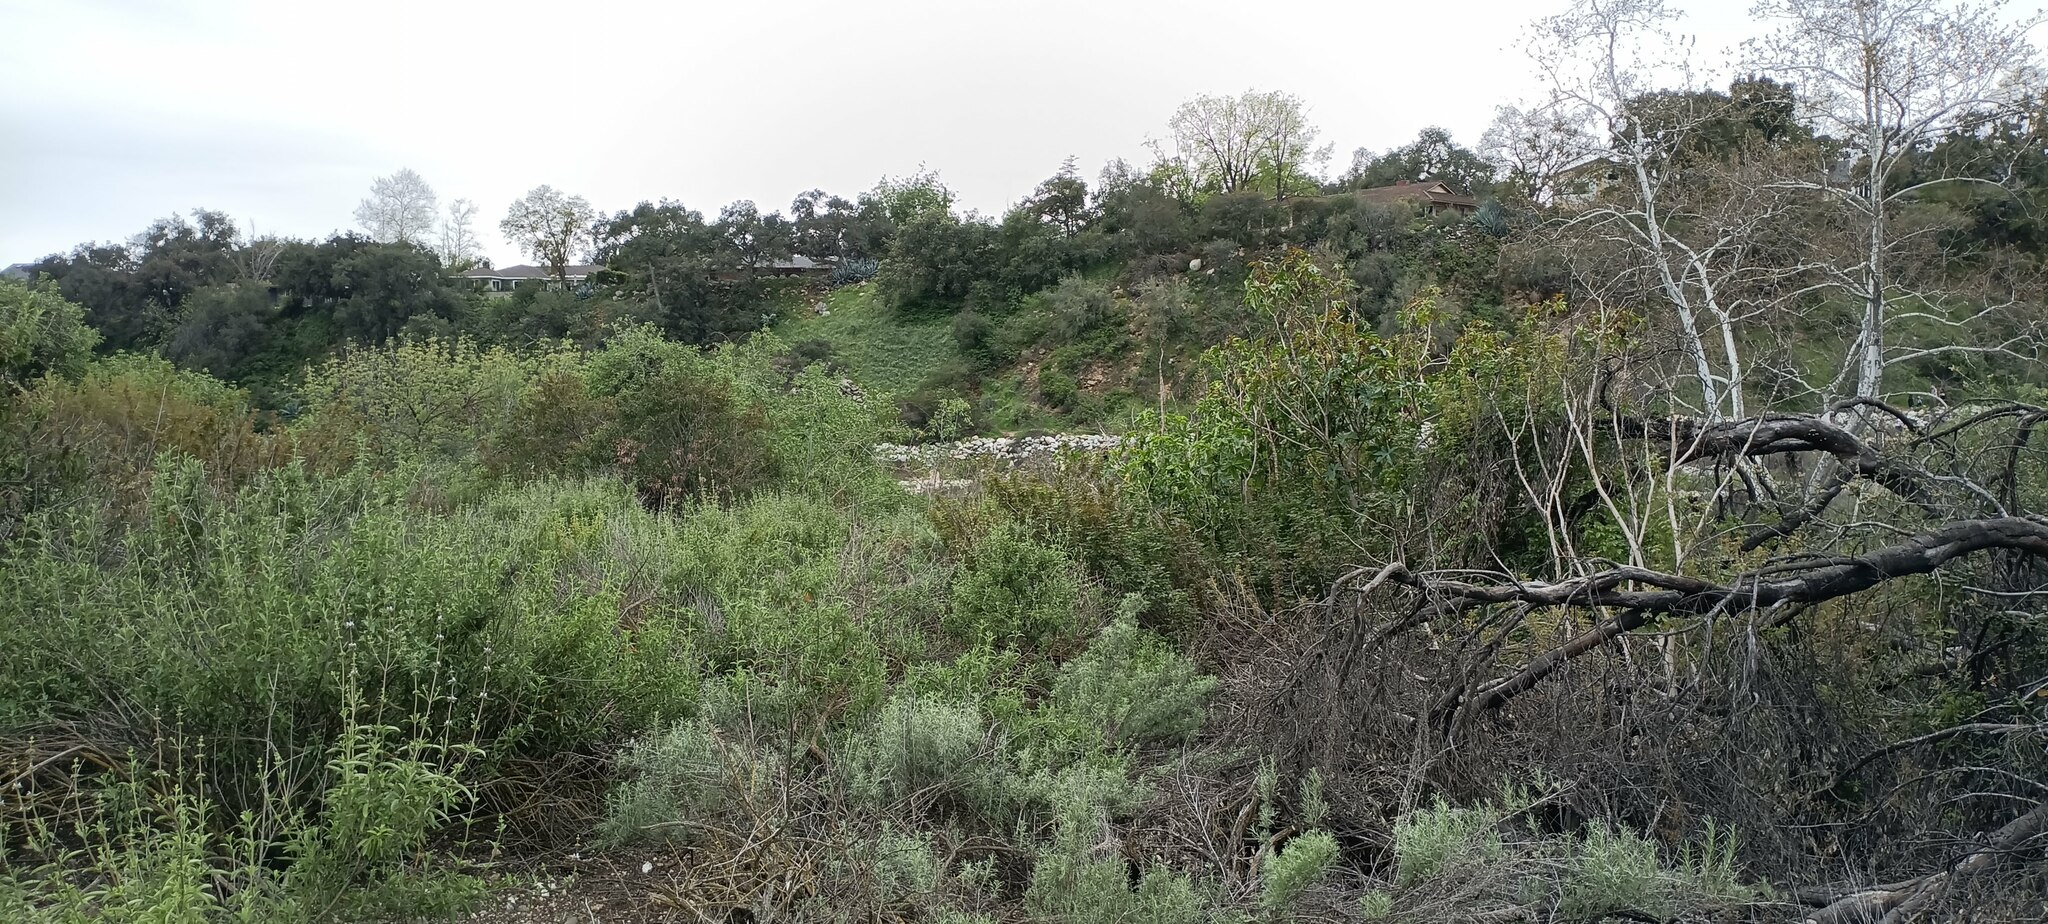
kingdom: Plantae
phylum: Tracheophyta
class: Magnoliopsida
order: Malpighiales
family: Euphorbiaceae
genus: Ricinus
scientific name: Ricinus communis
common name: Castor-oil-plant
